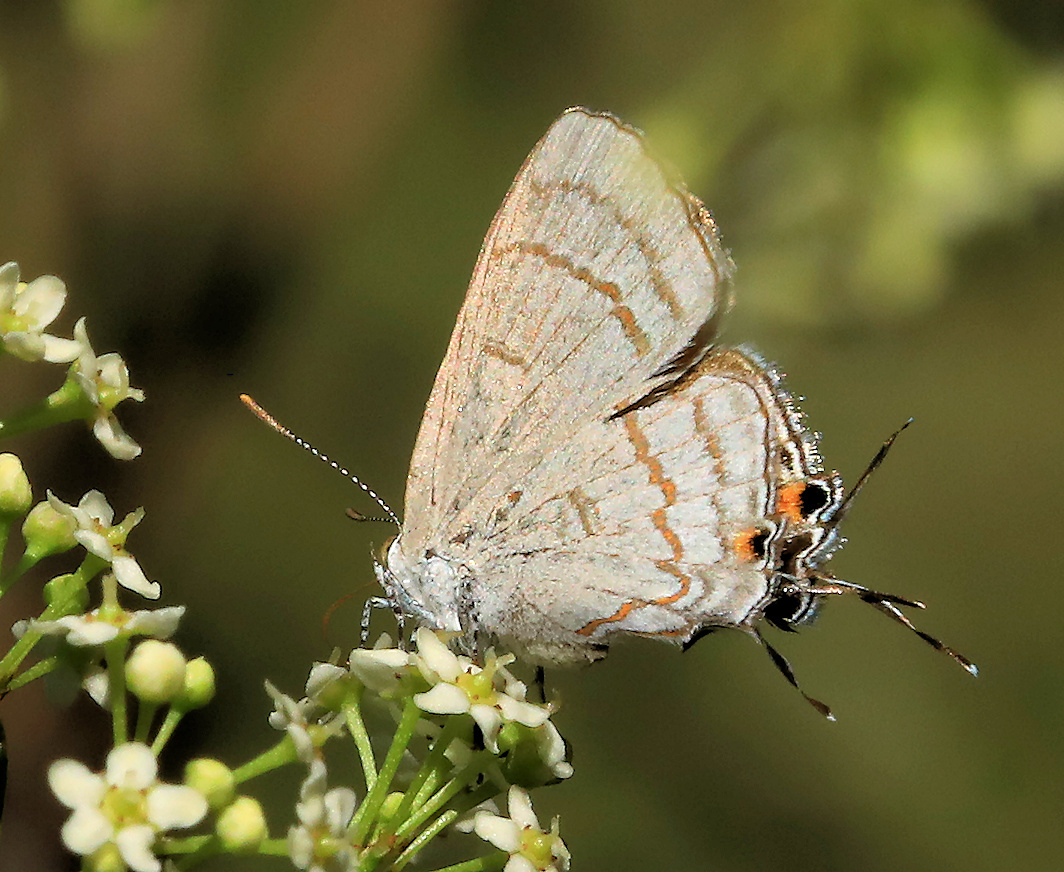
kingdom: Animalia
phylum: Arthropoda
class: Insecta
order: Lepidoptera
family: Lycaenidae
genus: Hypolycaena
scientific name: Hypolycaena philippus
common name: Common hairstreak
